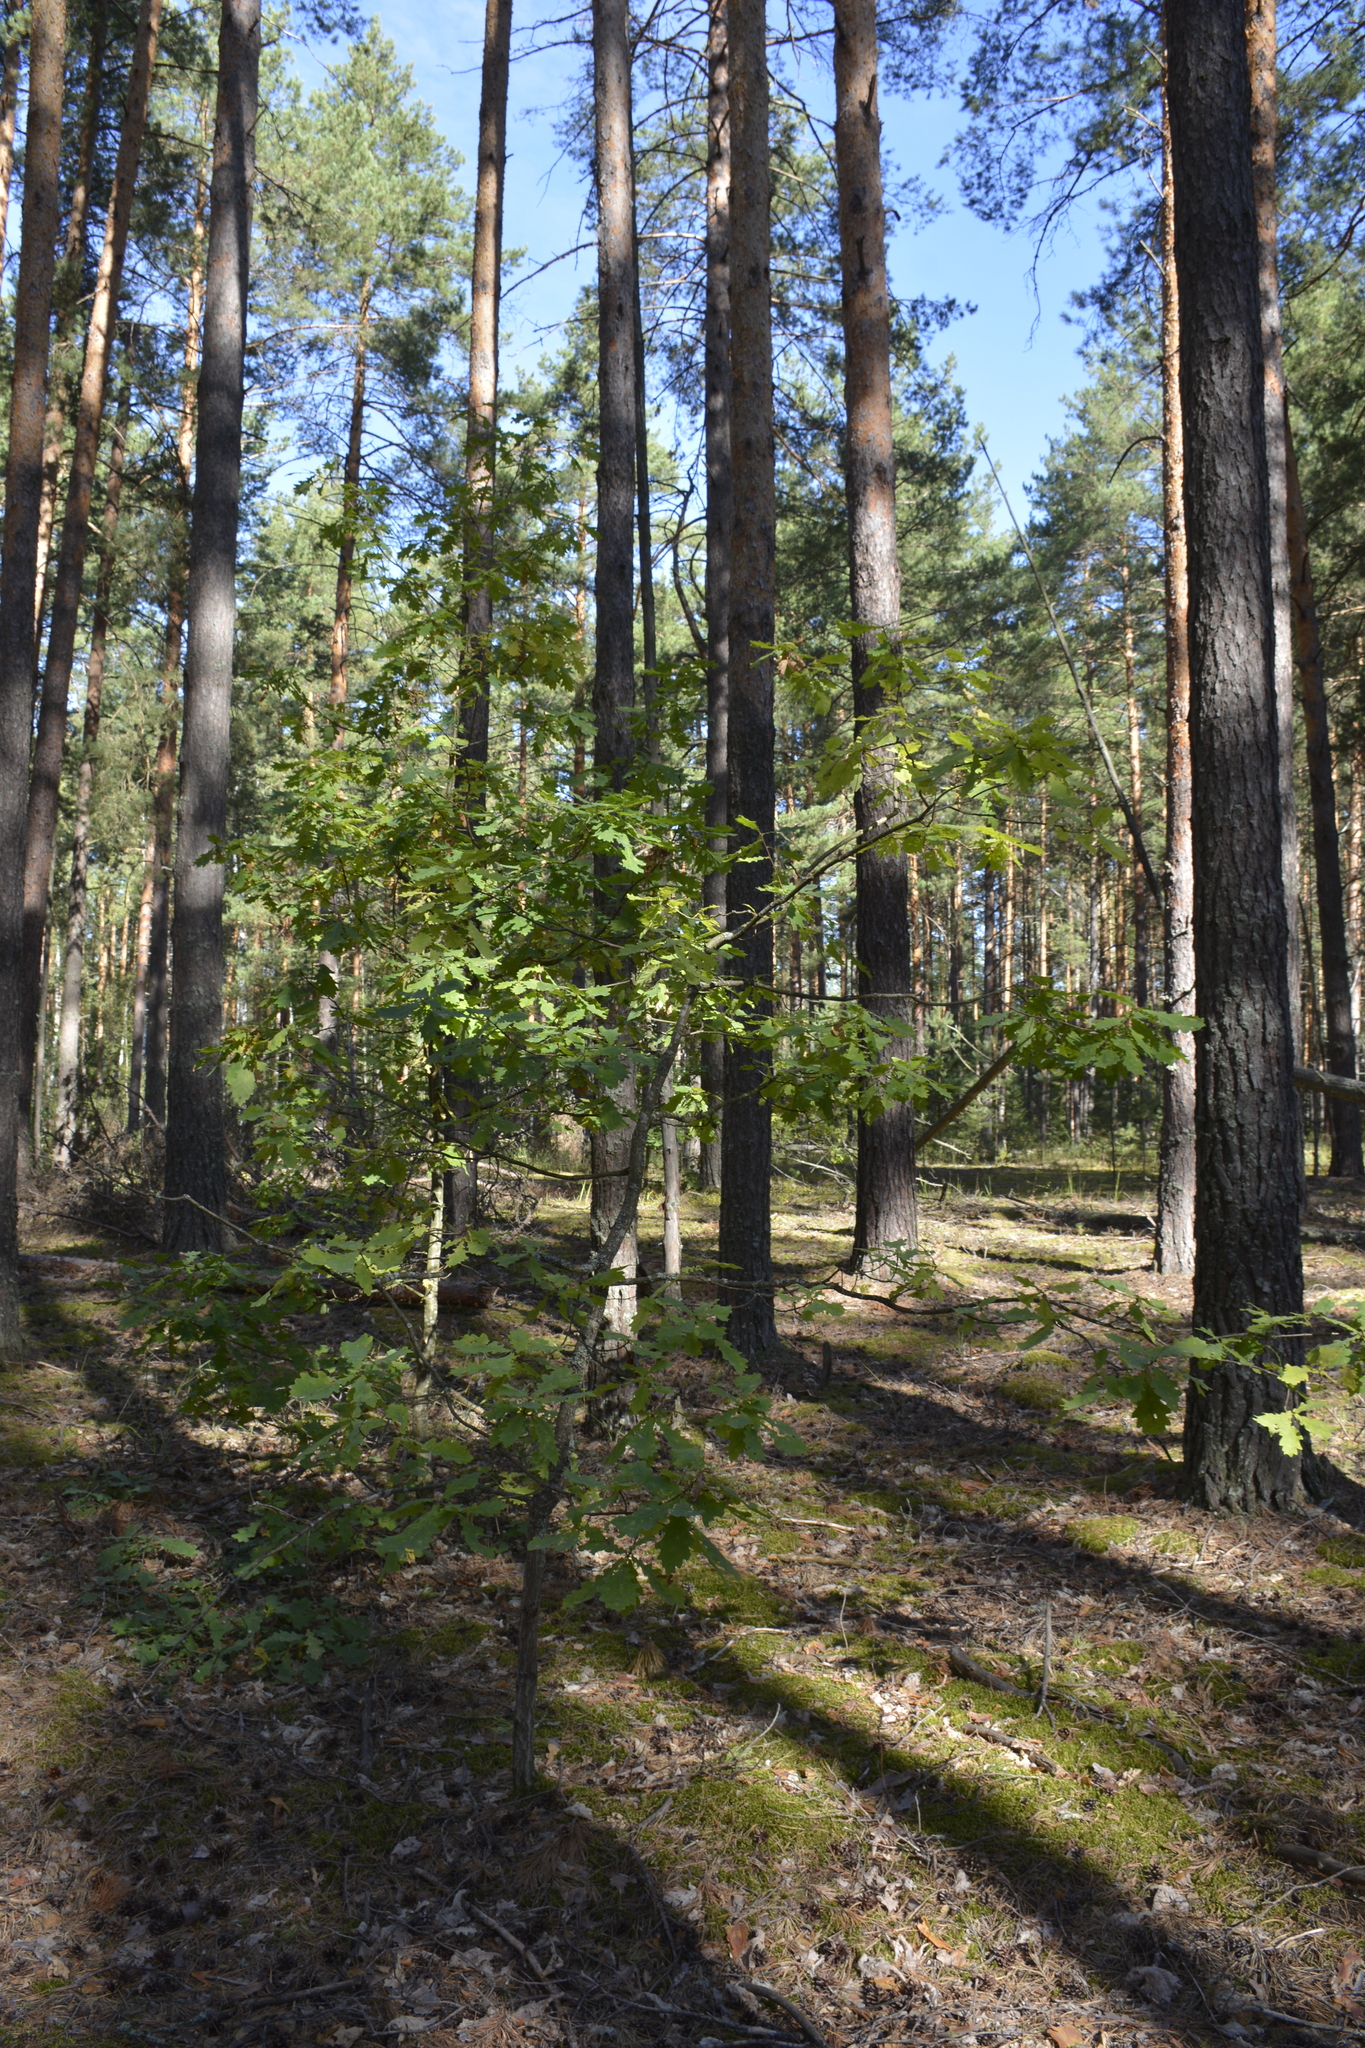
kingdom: Plantae
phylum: Tracheophyta
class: Magnoliopsida
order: Fagales
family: Fagaceae
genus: Quercus
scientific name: Quercus robur
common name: Pedunculate oak
